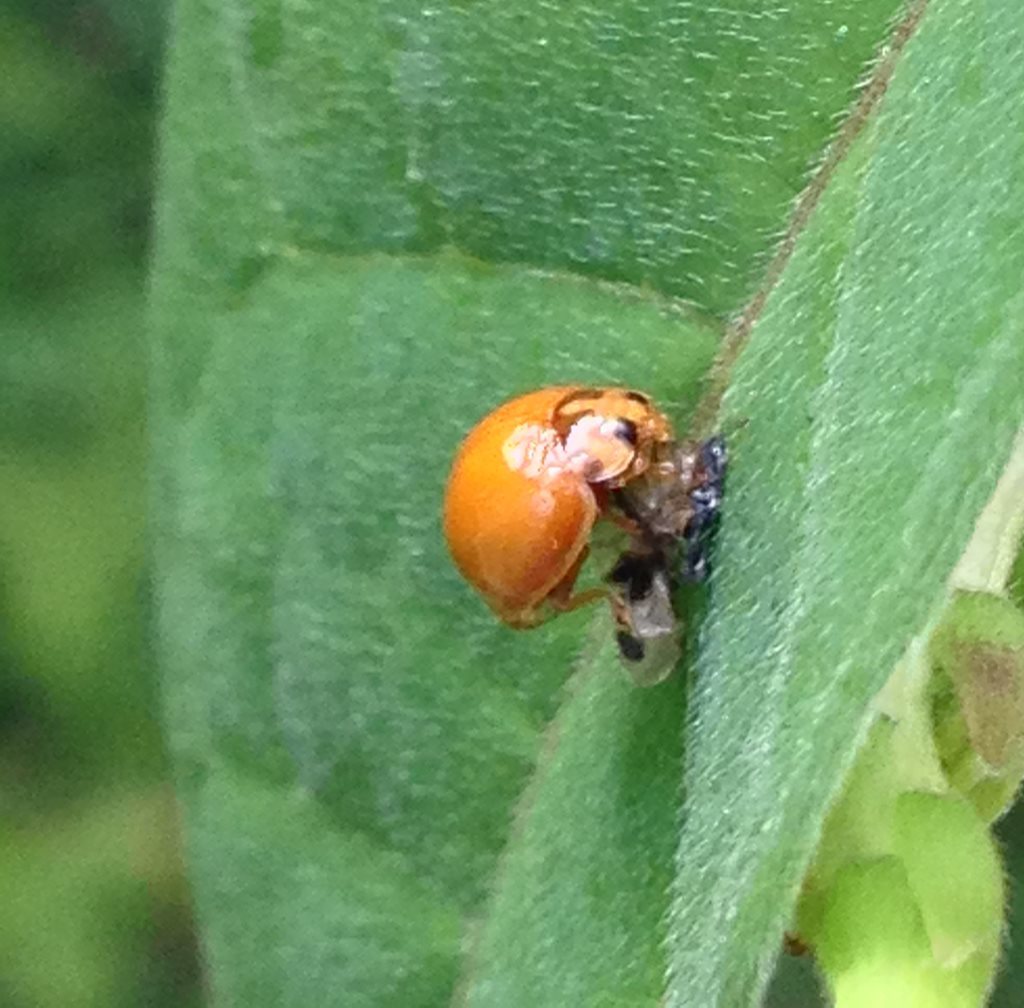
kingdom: Animalia
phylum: Arthropoda
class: Insecta
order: Coleoptera
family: Coccinellidae
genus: Harmonia
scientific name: Harmonia conformis
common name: Common spotted ladybird beetle
